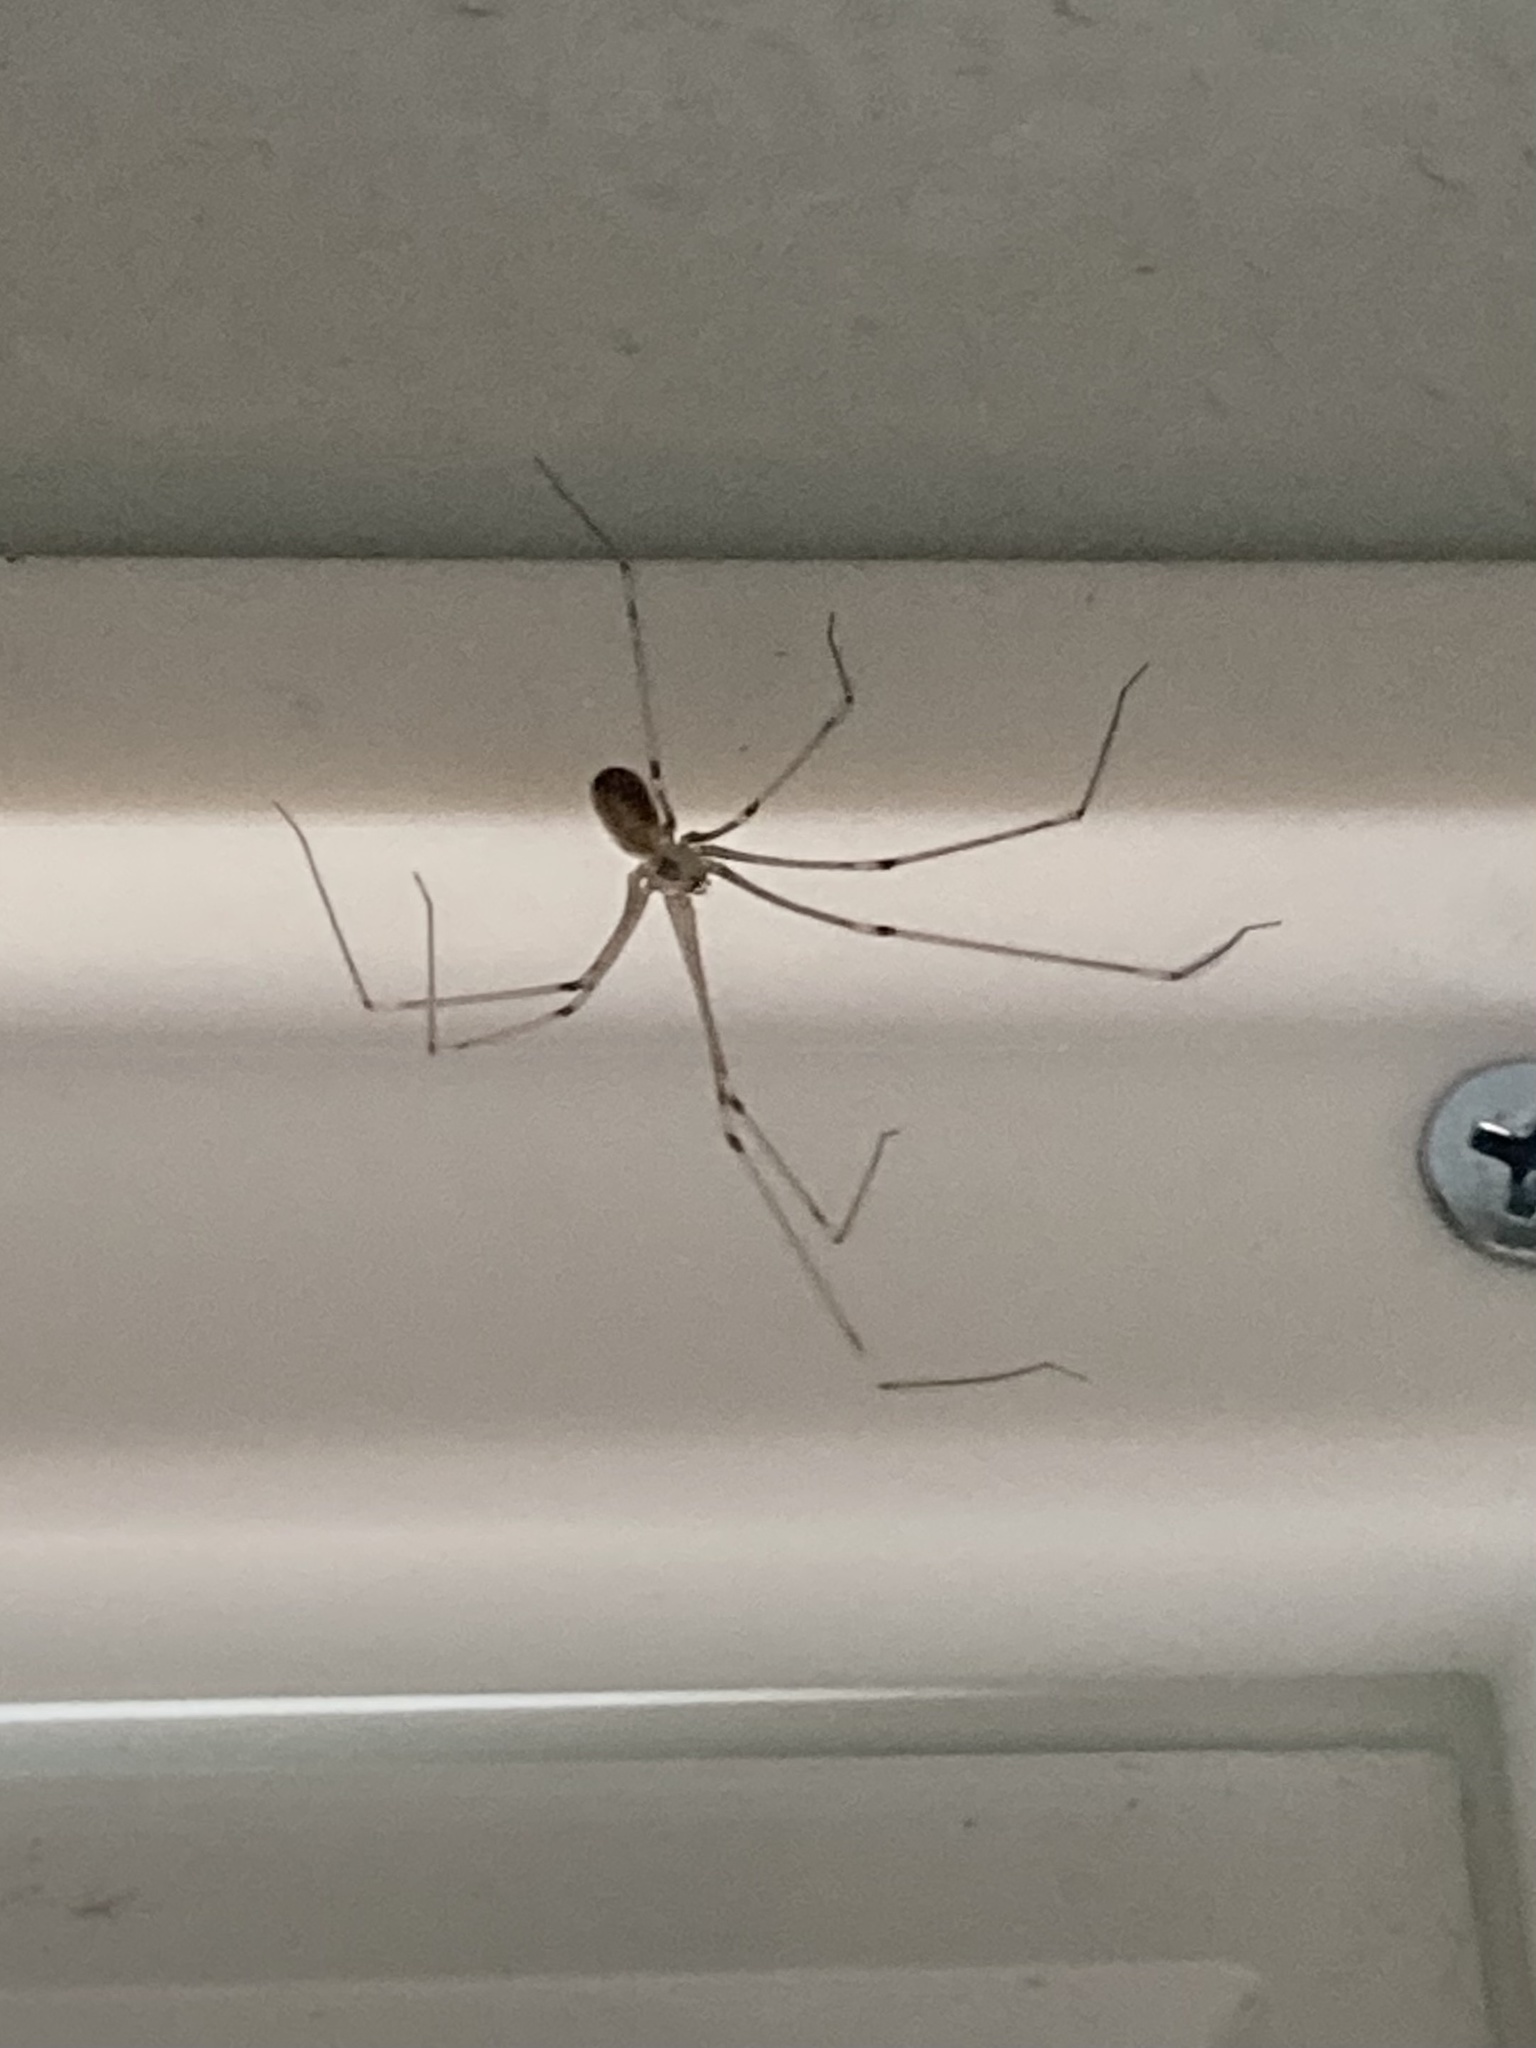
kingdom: Animalia
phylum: Arthropoda
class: Arachnida
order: Araneae
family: Pholcidae
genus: Pholcus
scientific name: Pholcus phalangioides
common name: Longbodied cellar spider
